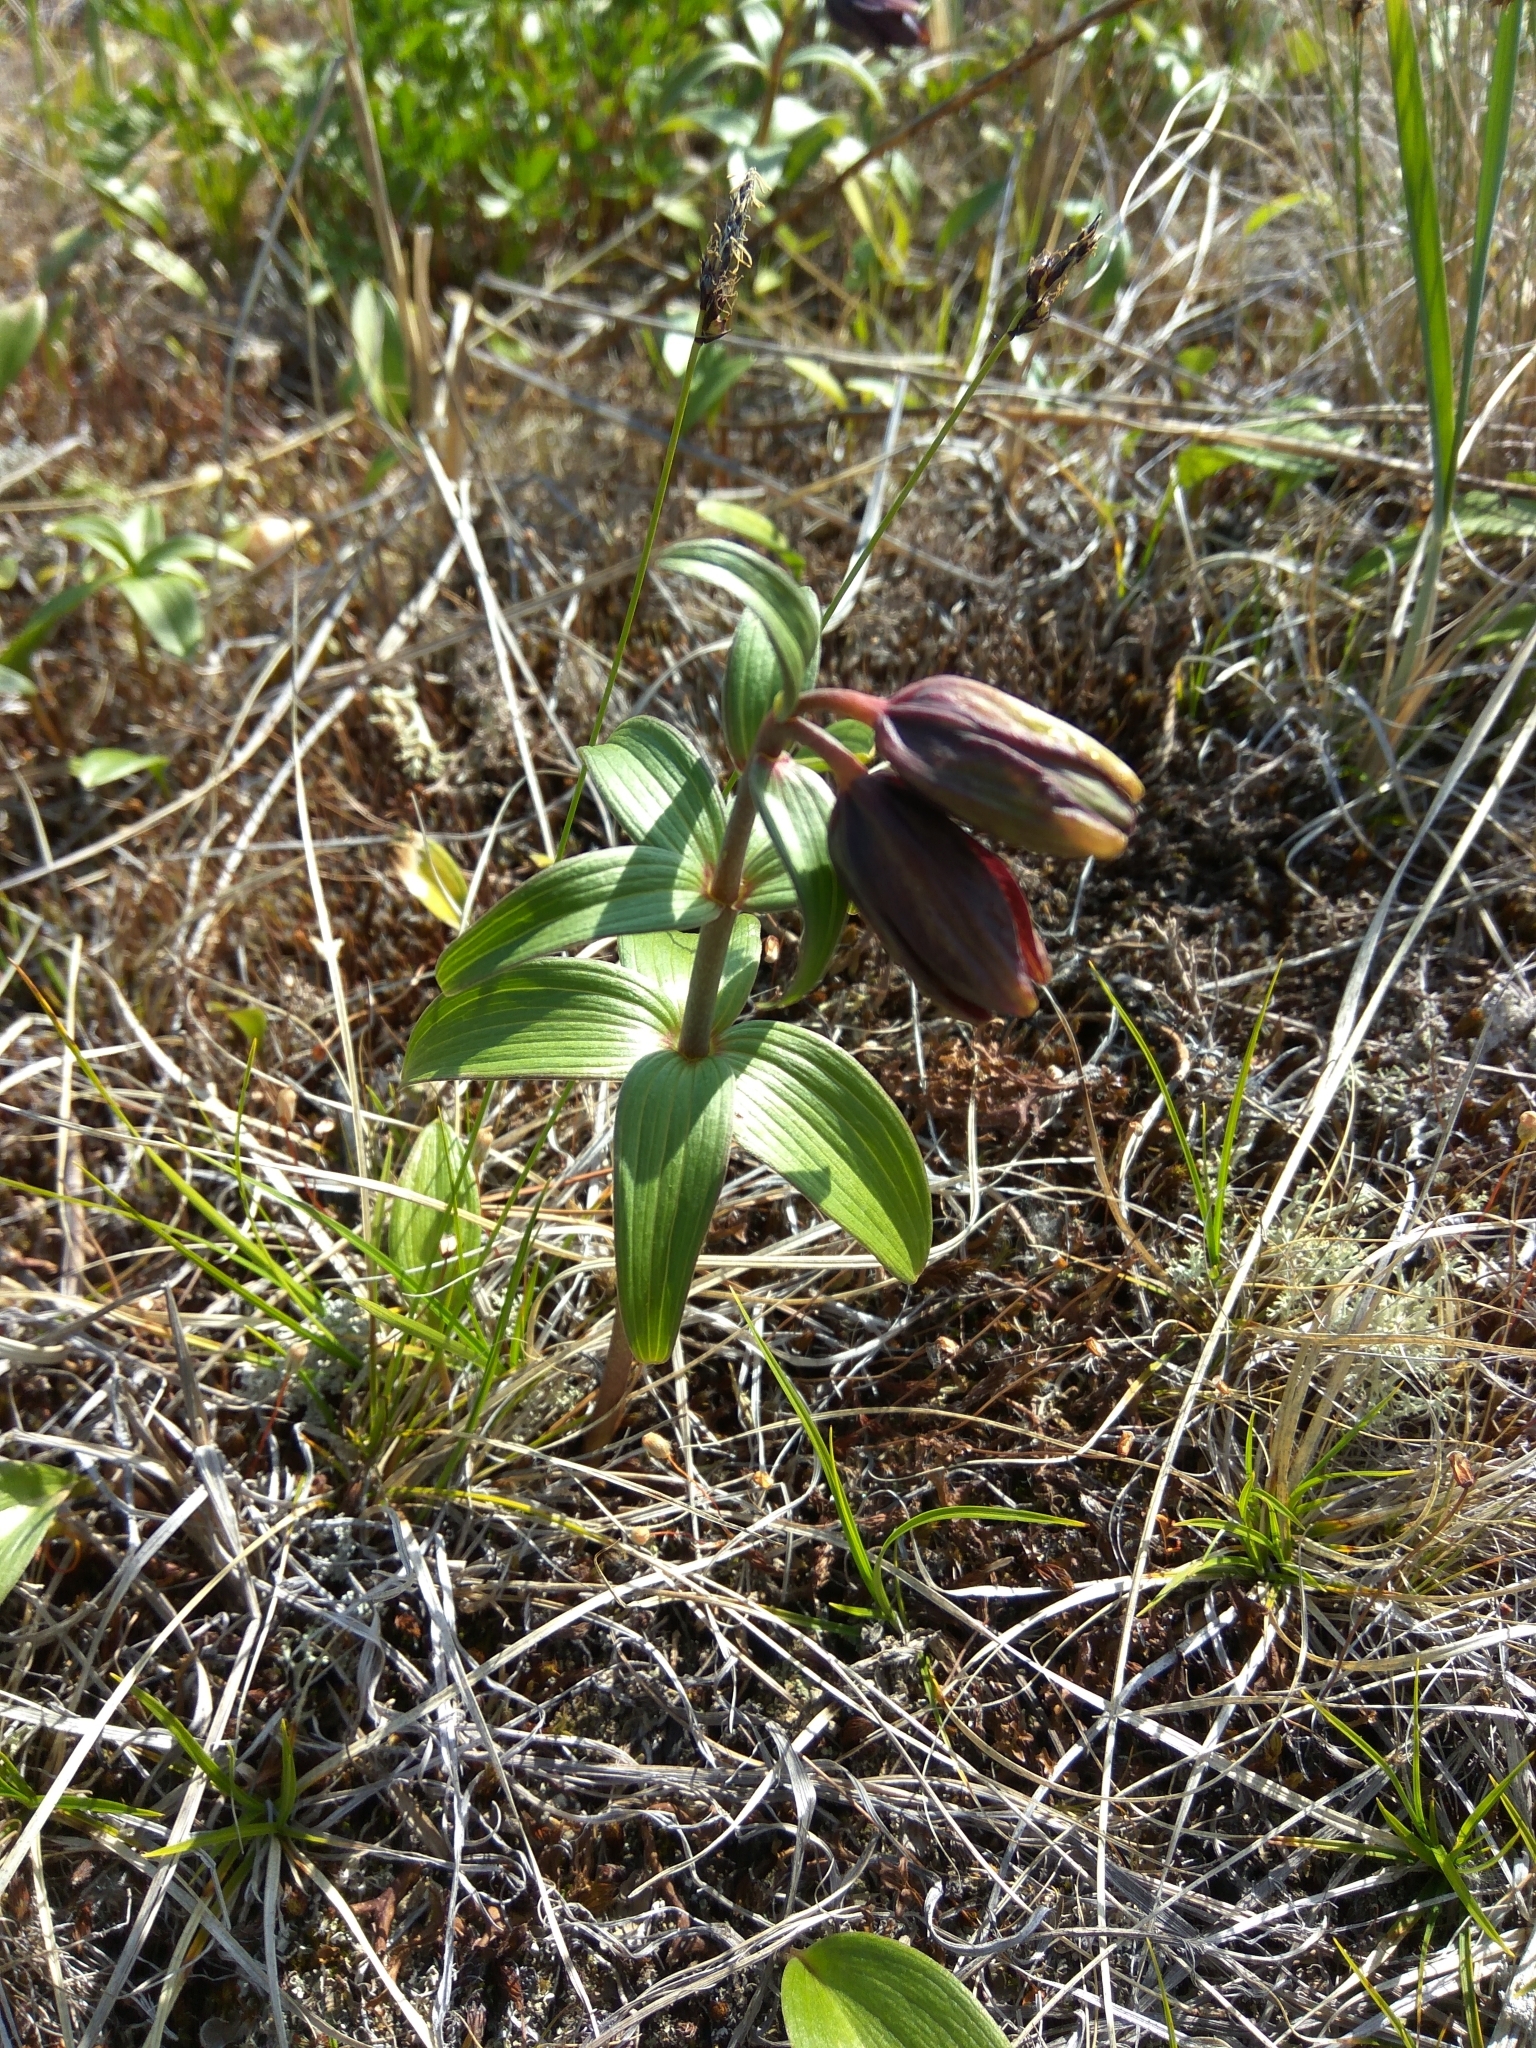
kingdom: Plantae
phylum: Tracheophyta
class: Liliopsida
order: Liliales
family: Liliaceae
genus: Fritillaria
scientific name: Fritillaria camschatcensis
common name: Kamchatka fritillary
